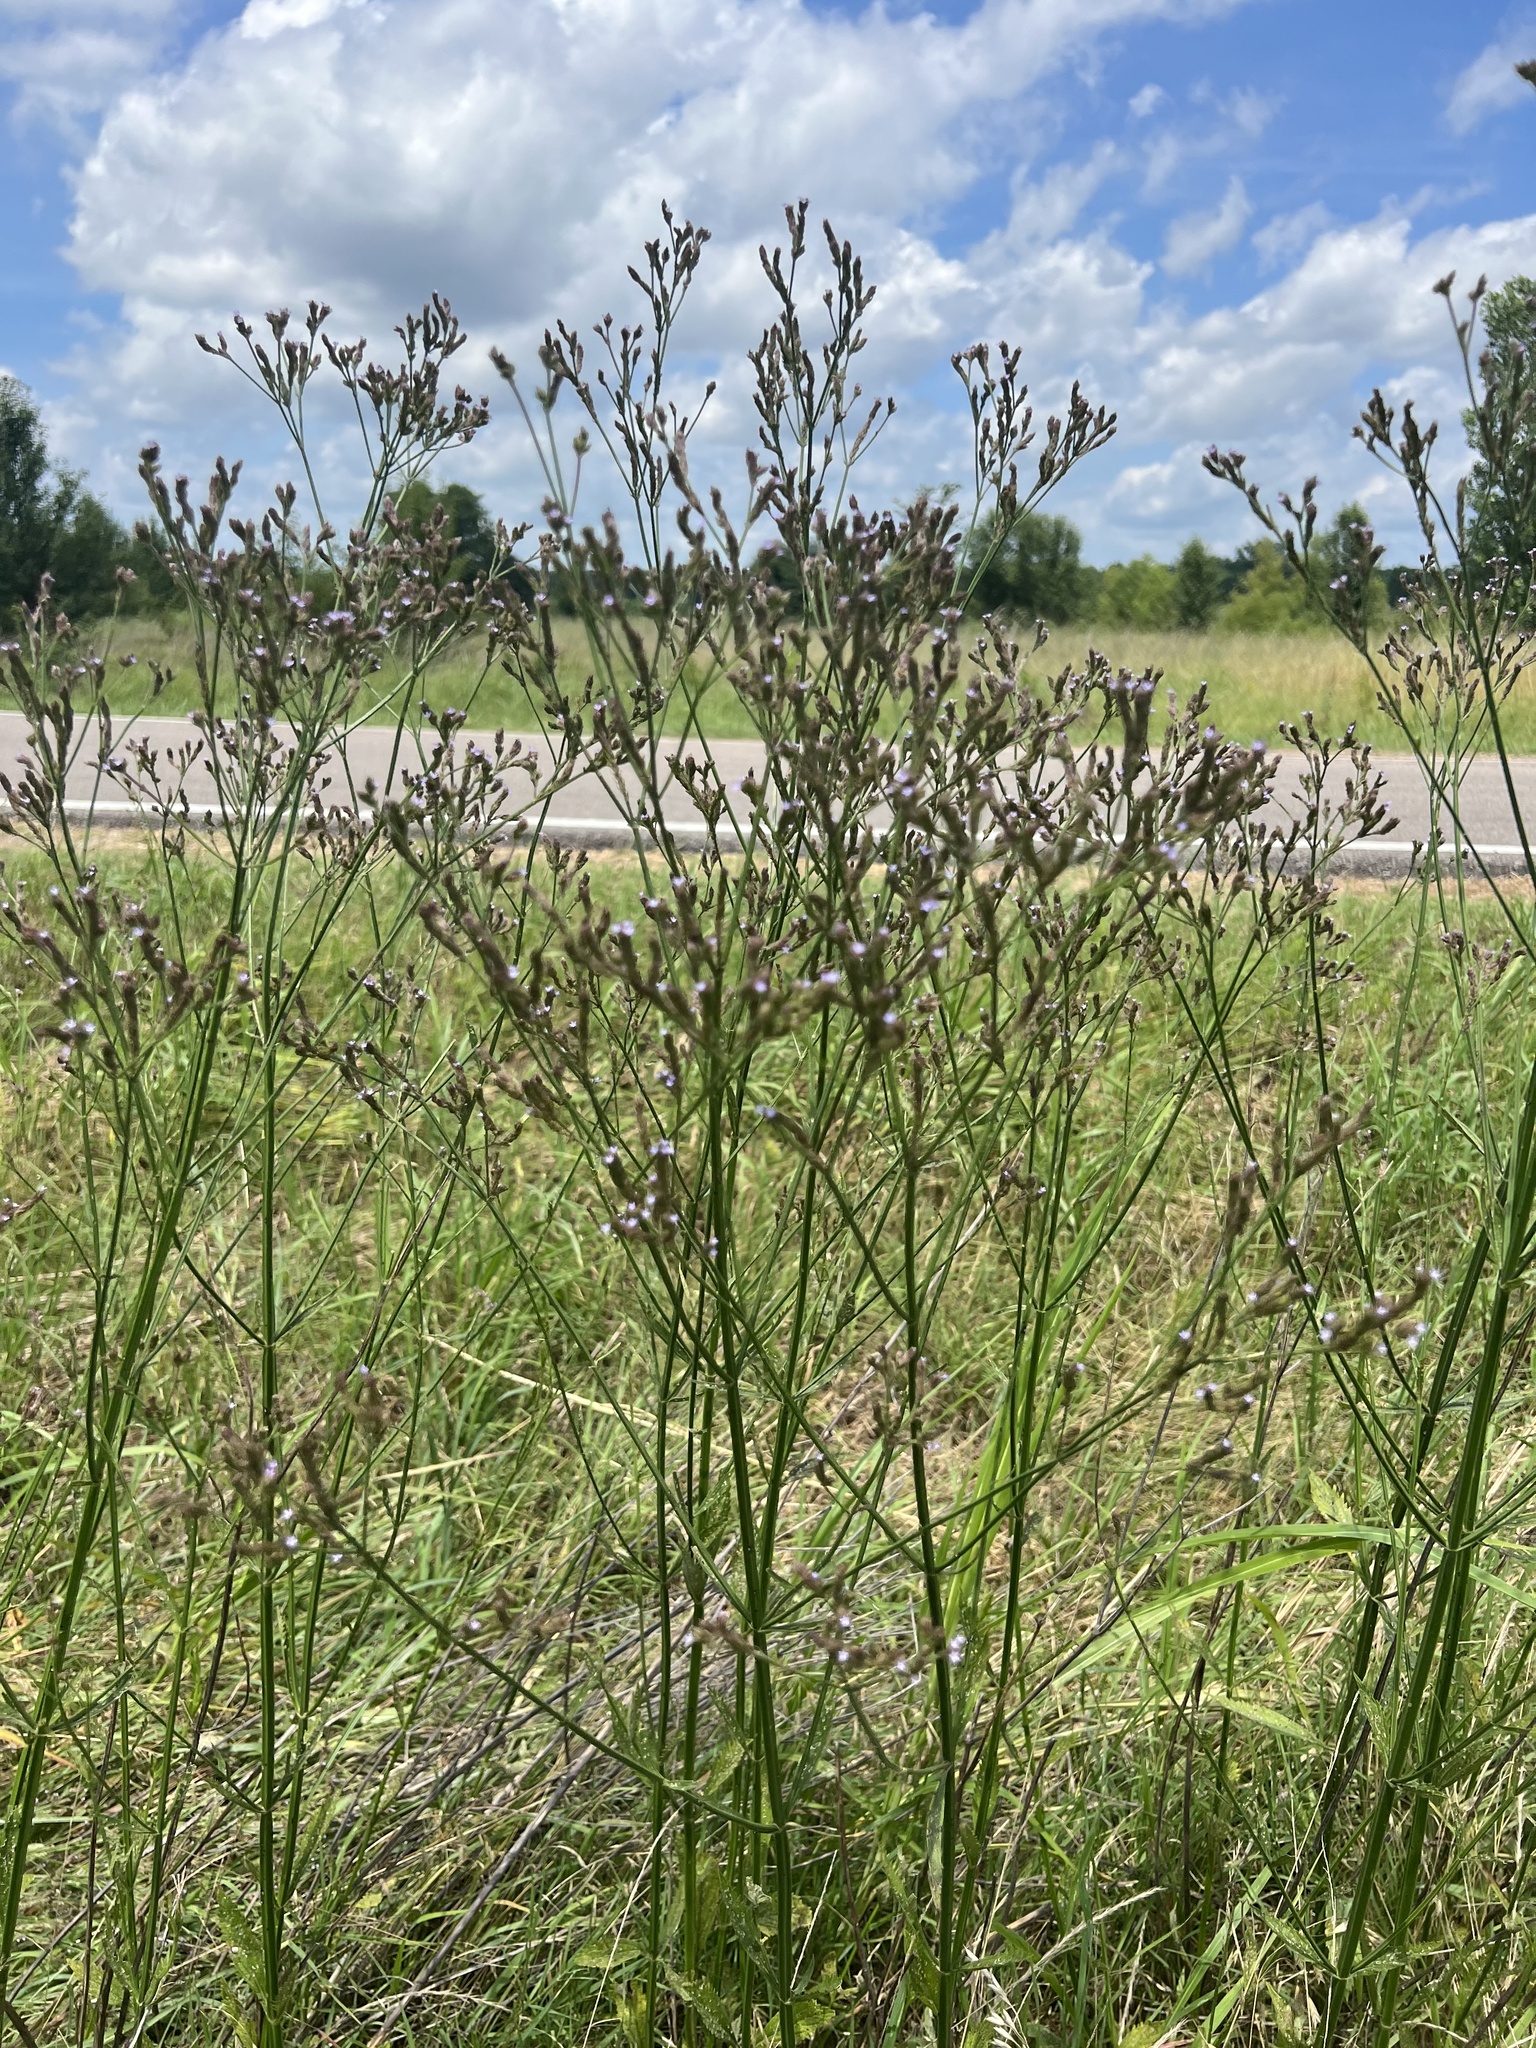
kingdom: Plantae
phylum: Tracheophyta
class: Magnoliopsida
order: Lamiales
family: Verbenaceae
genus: Verbena
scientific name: Verbena brasiliensis
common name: Brazilian vervain
